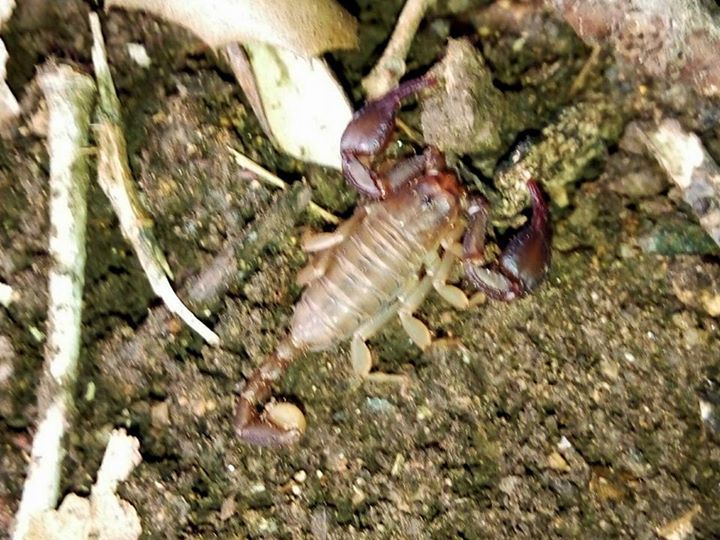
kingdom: Animalia
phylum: Arthropoda
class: Arachnida
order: Scorpiones
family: Euscorpiidae
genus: Euscorpius
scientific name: Euscorpius
